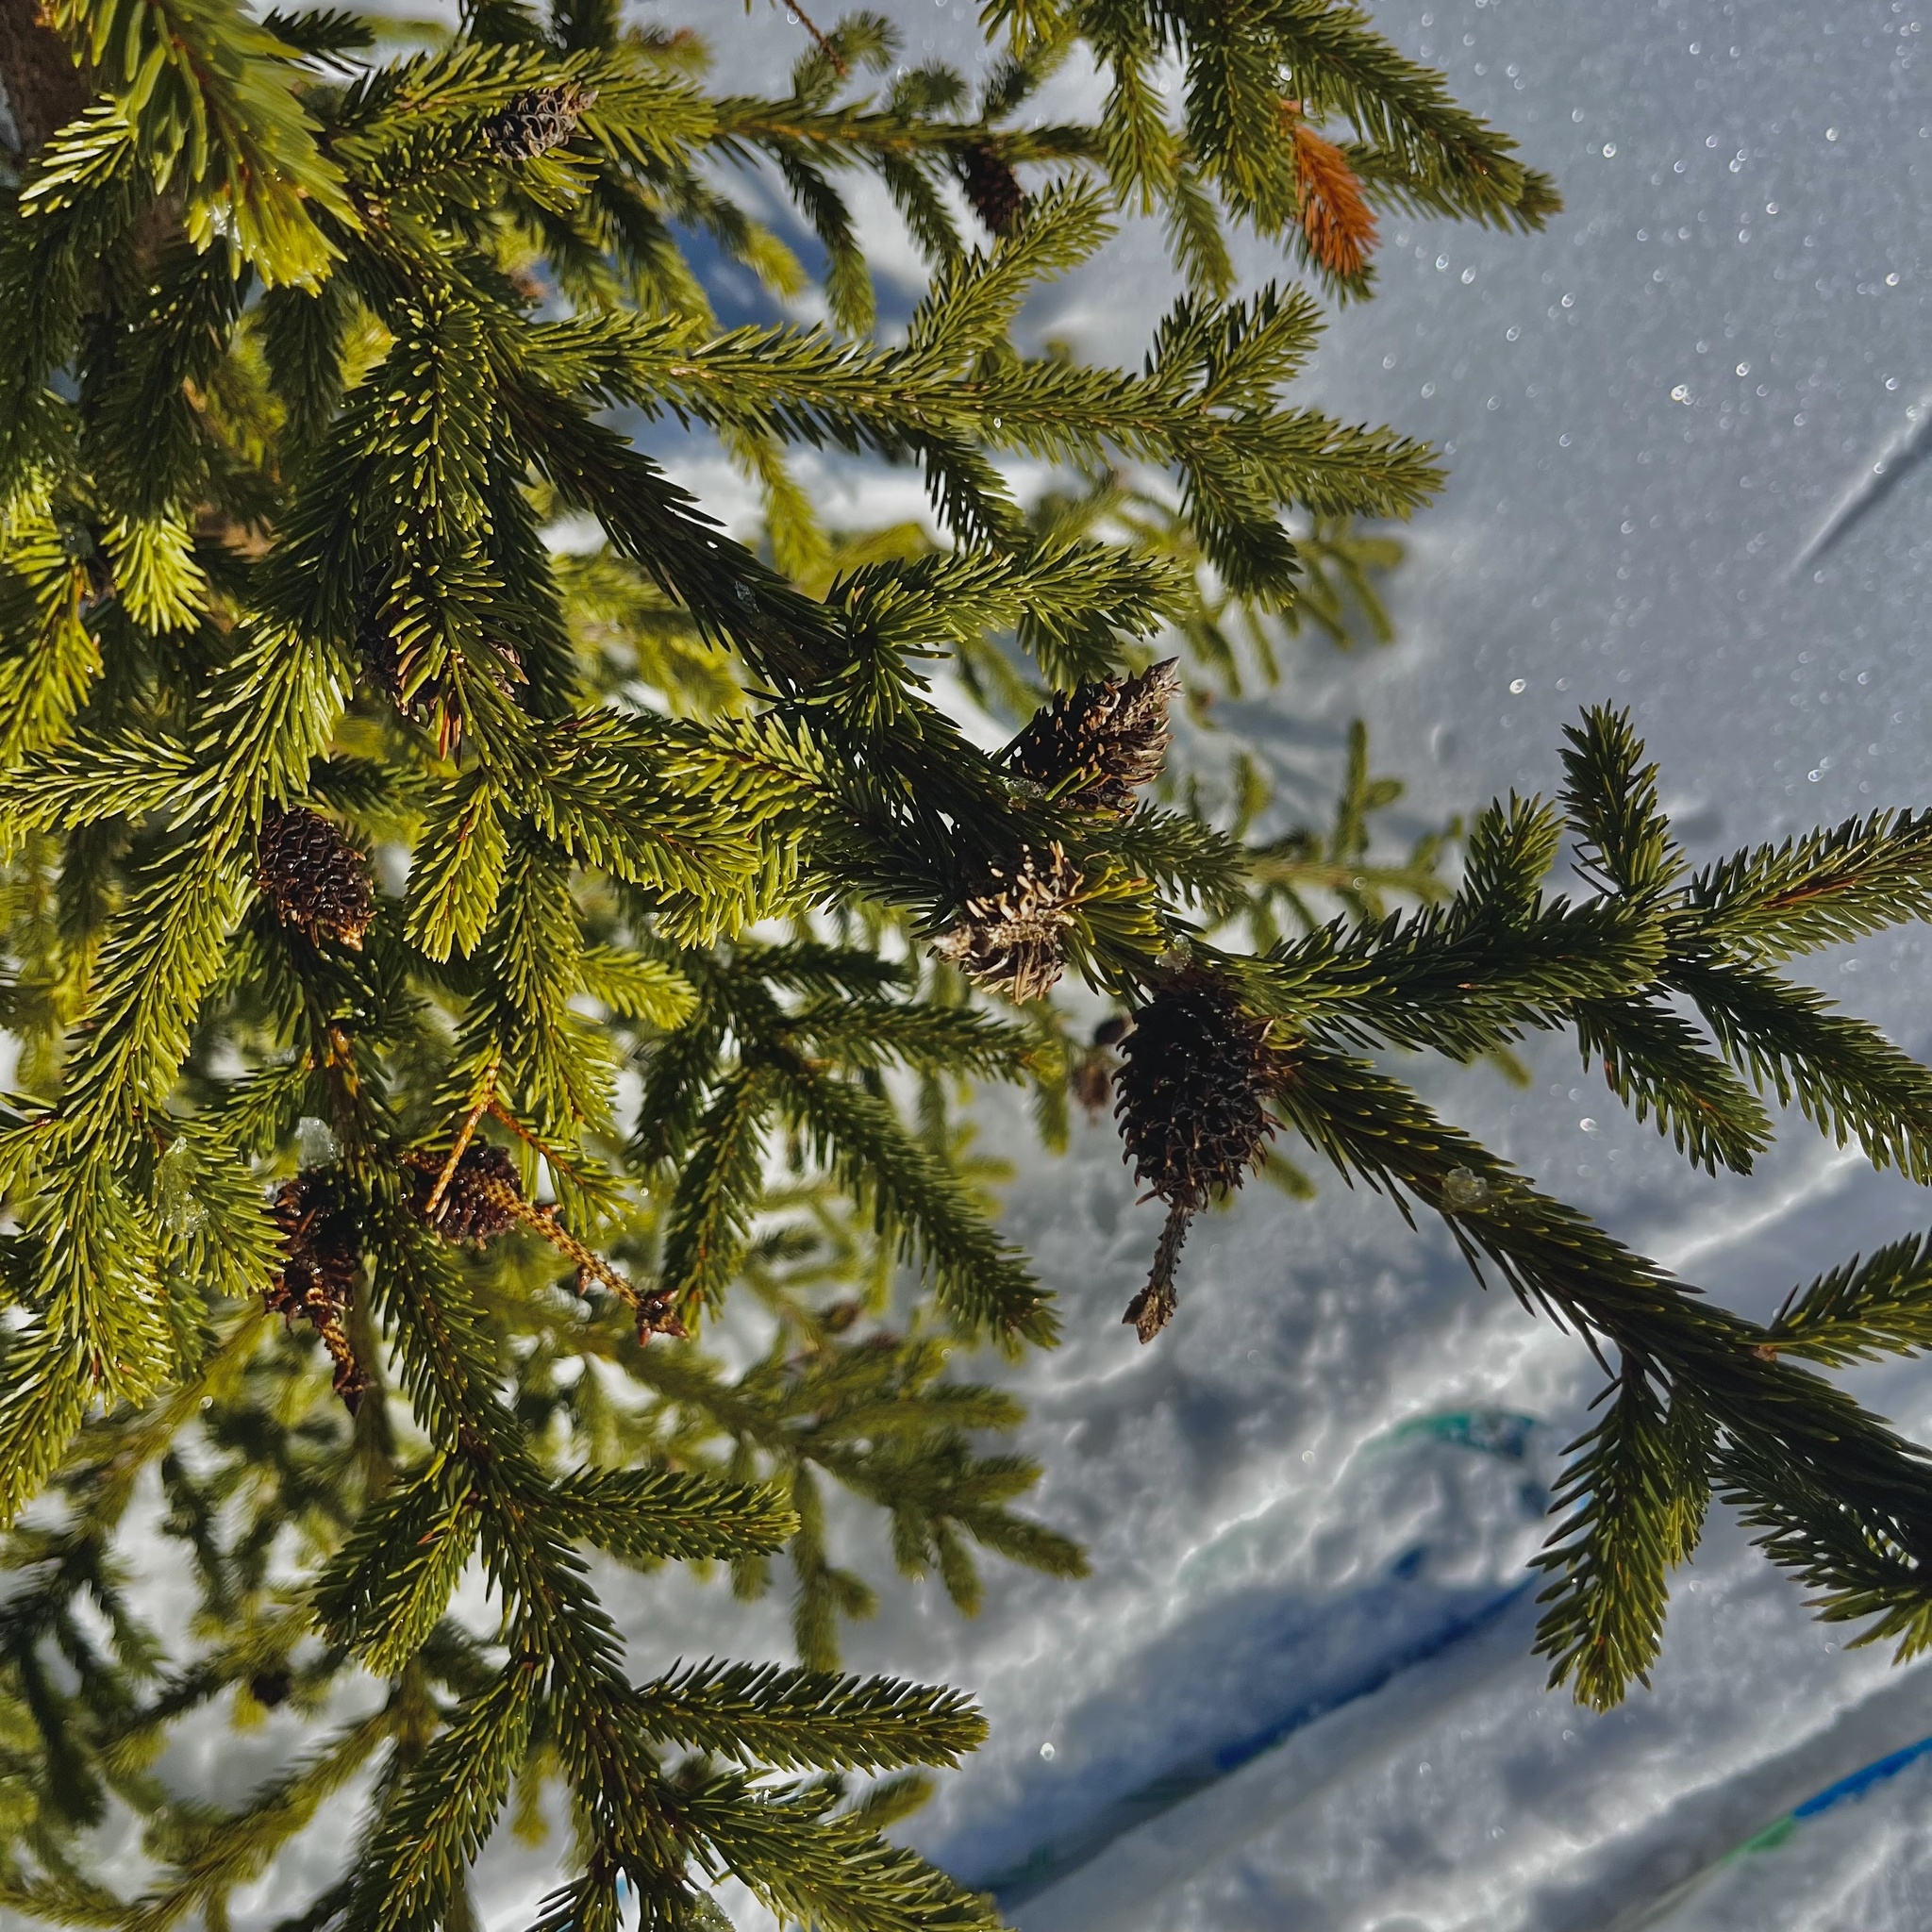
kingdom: Plantae
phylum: Tracheophyta
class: Pinopsida
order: Pinales
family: Pinaceae
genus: Picea
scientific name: Picea abies
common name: Norway spruce
